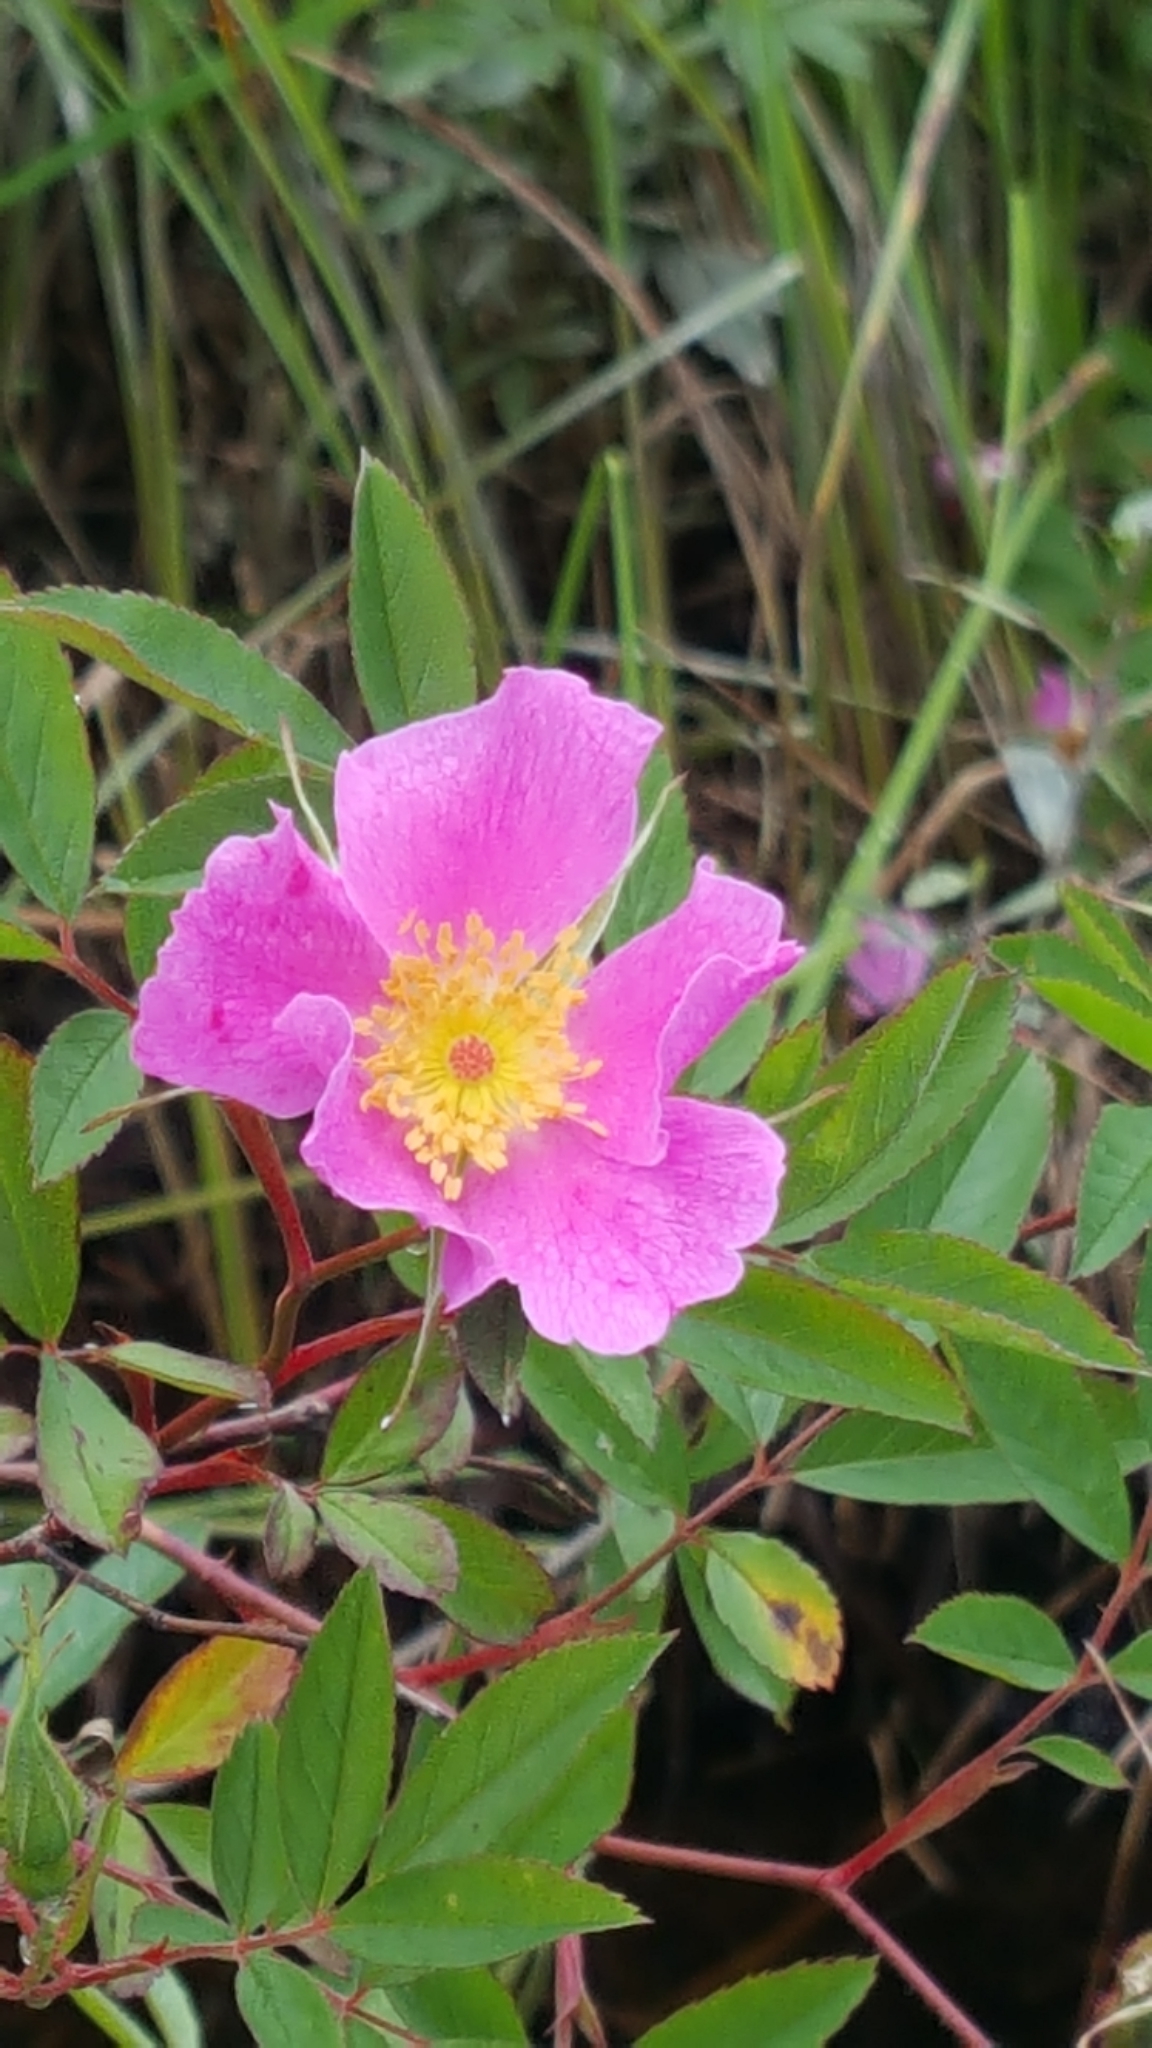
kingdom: Plantae
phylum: Tracheophyta
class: Magnoliopsida
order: Rosales
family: Rosaceae
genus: Rosa
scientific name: Rosa palustris
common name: Swamp rose
